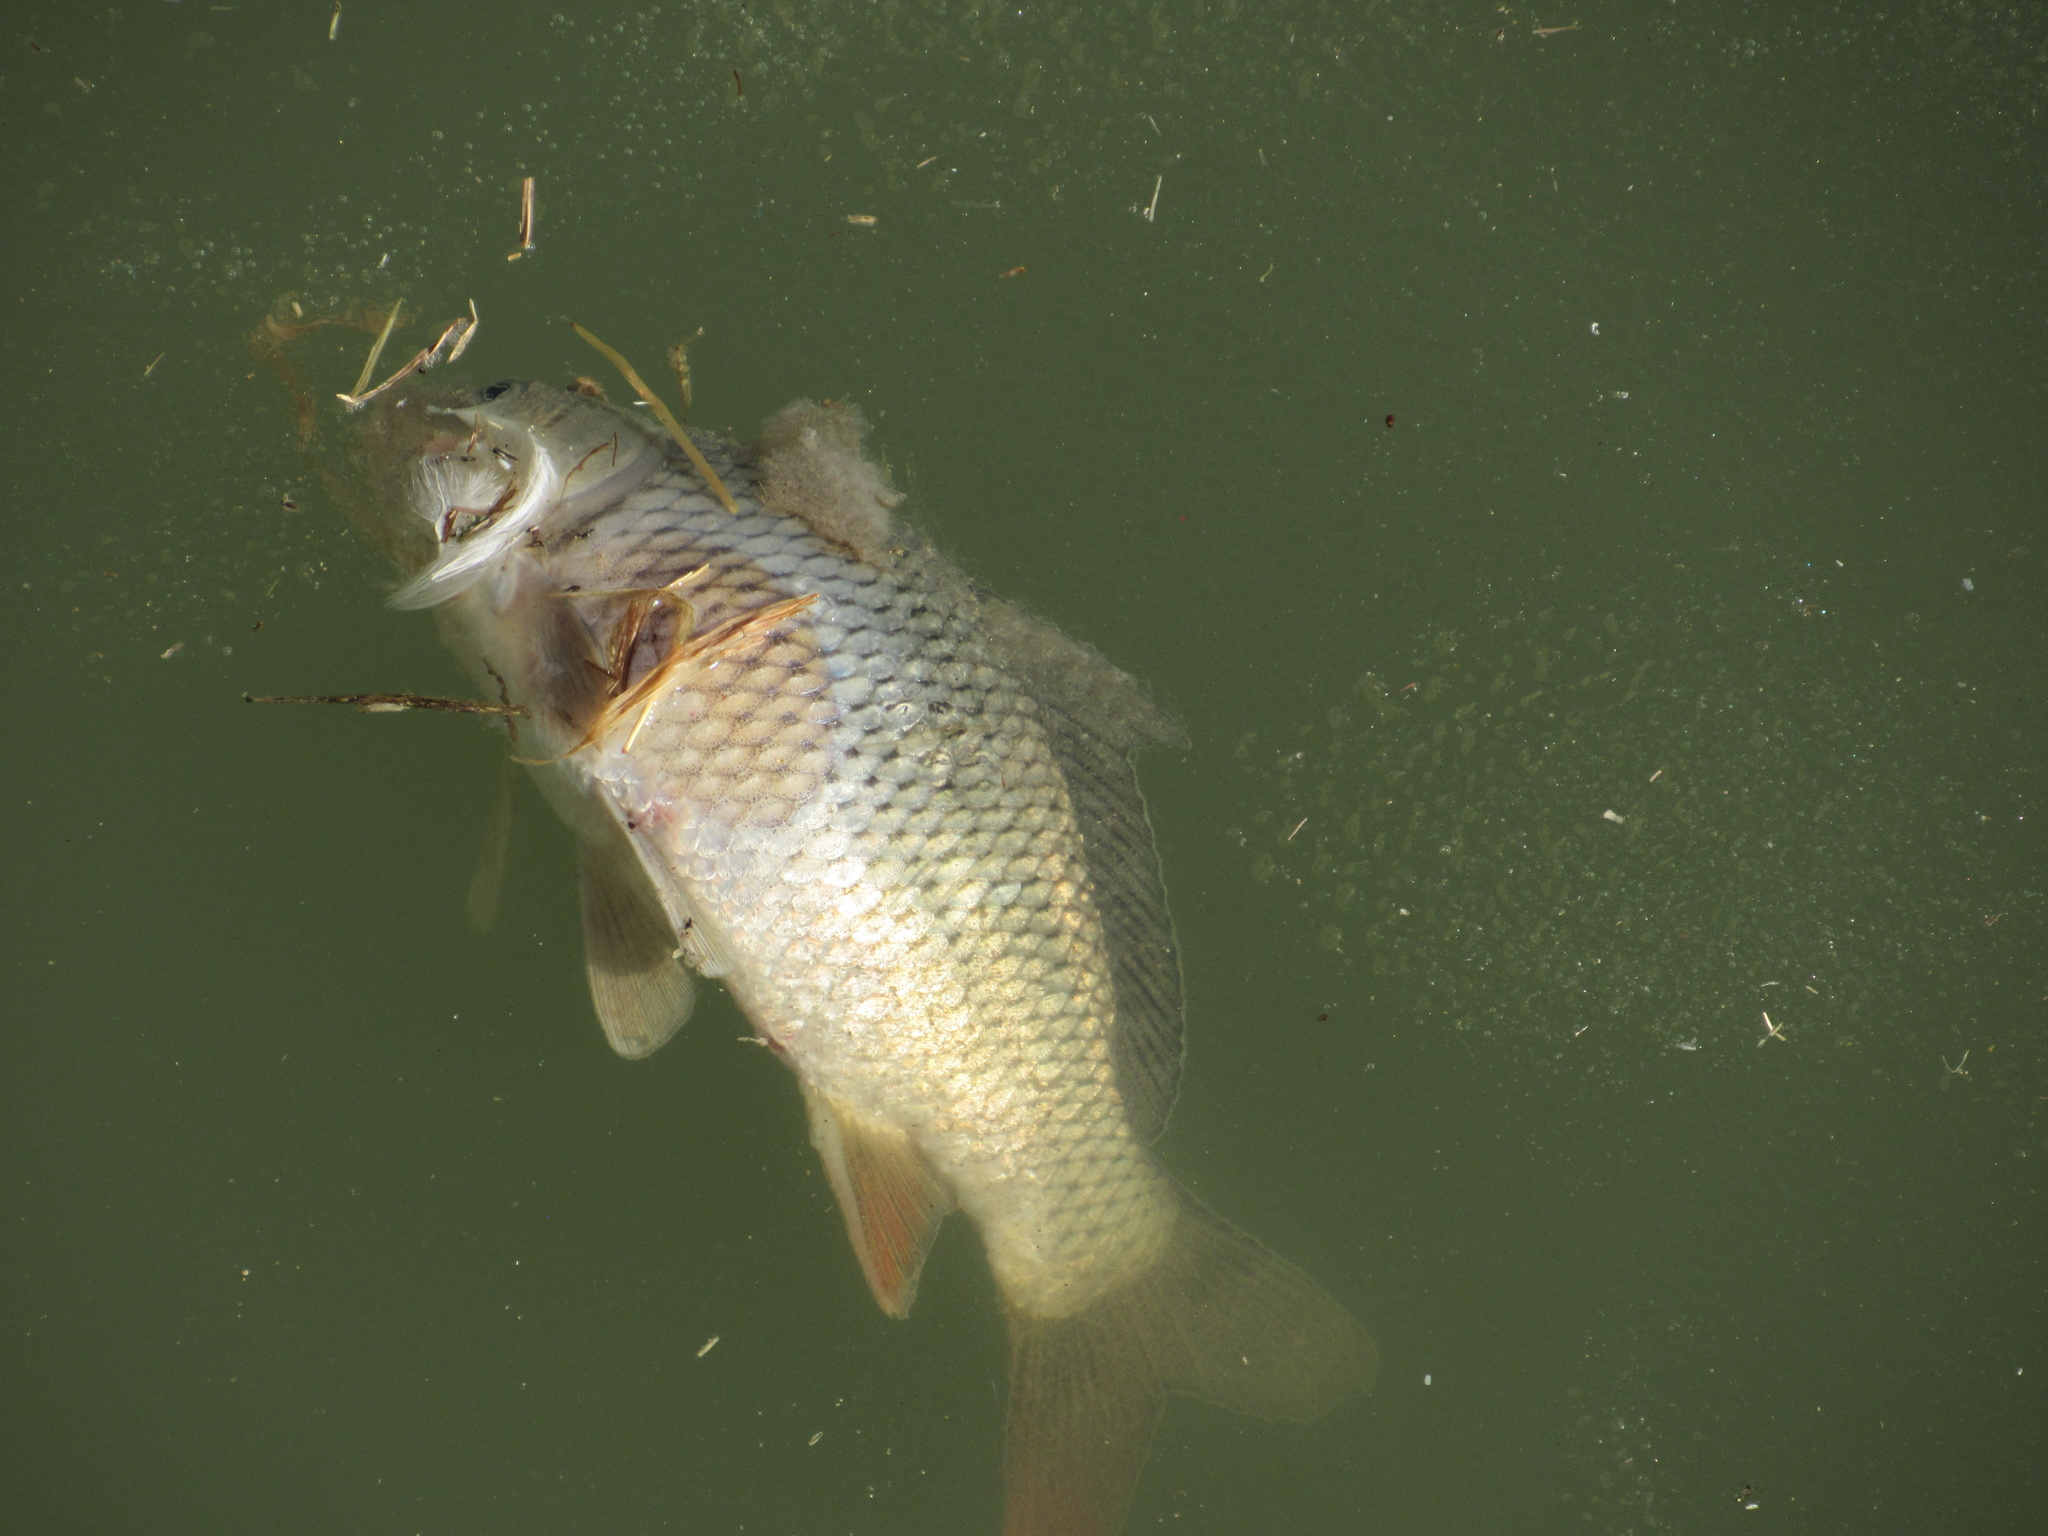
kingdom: Animalia
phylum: Chordata
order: Cypriniformes
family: Cyprinidae
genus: Cyprinus
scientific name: Cyprinus carpio
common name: Common carp
